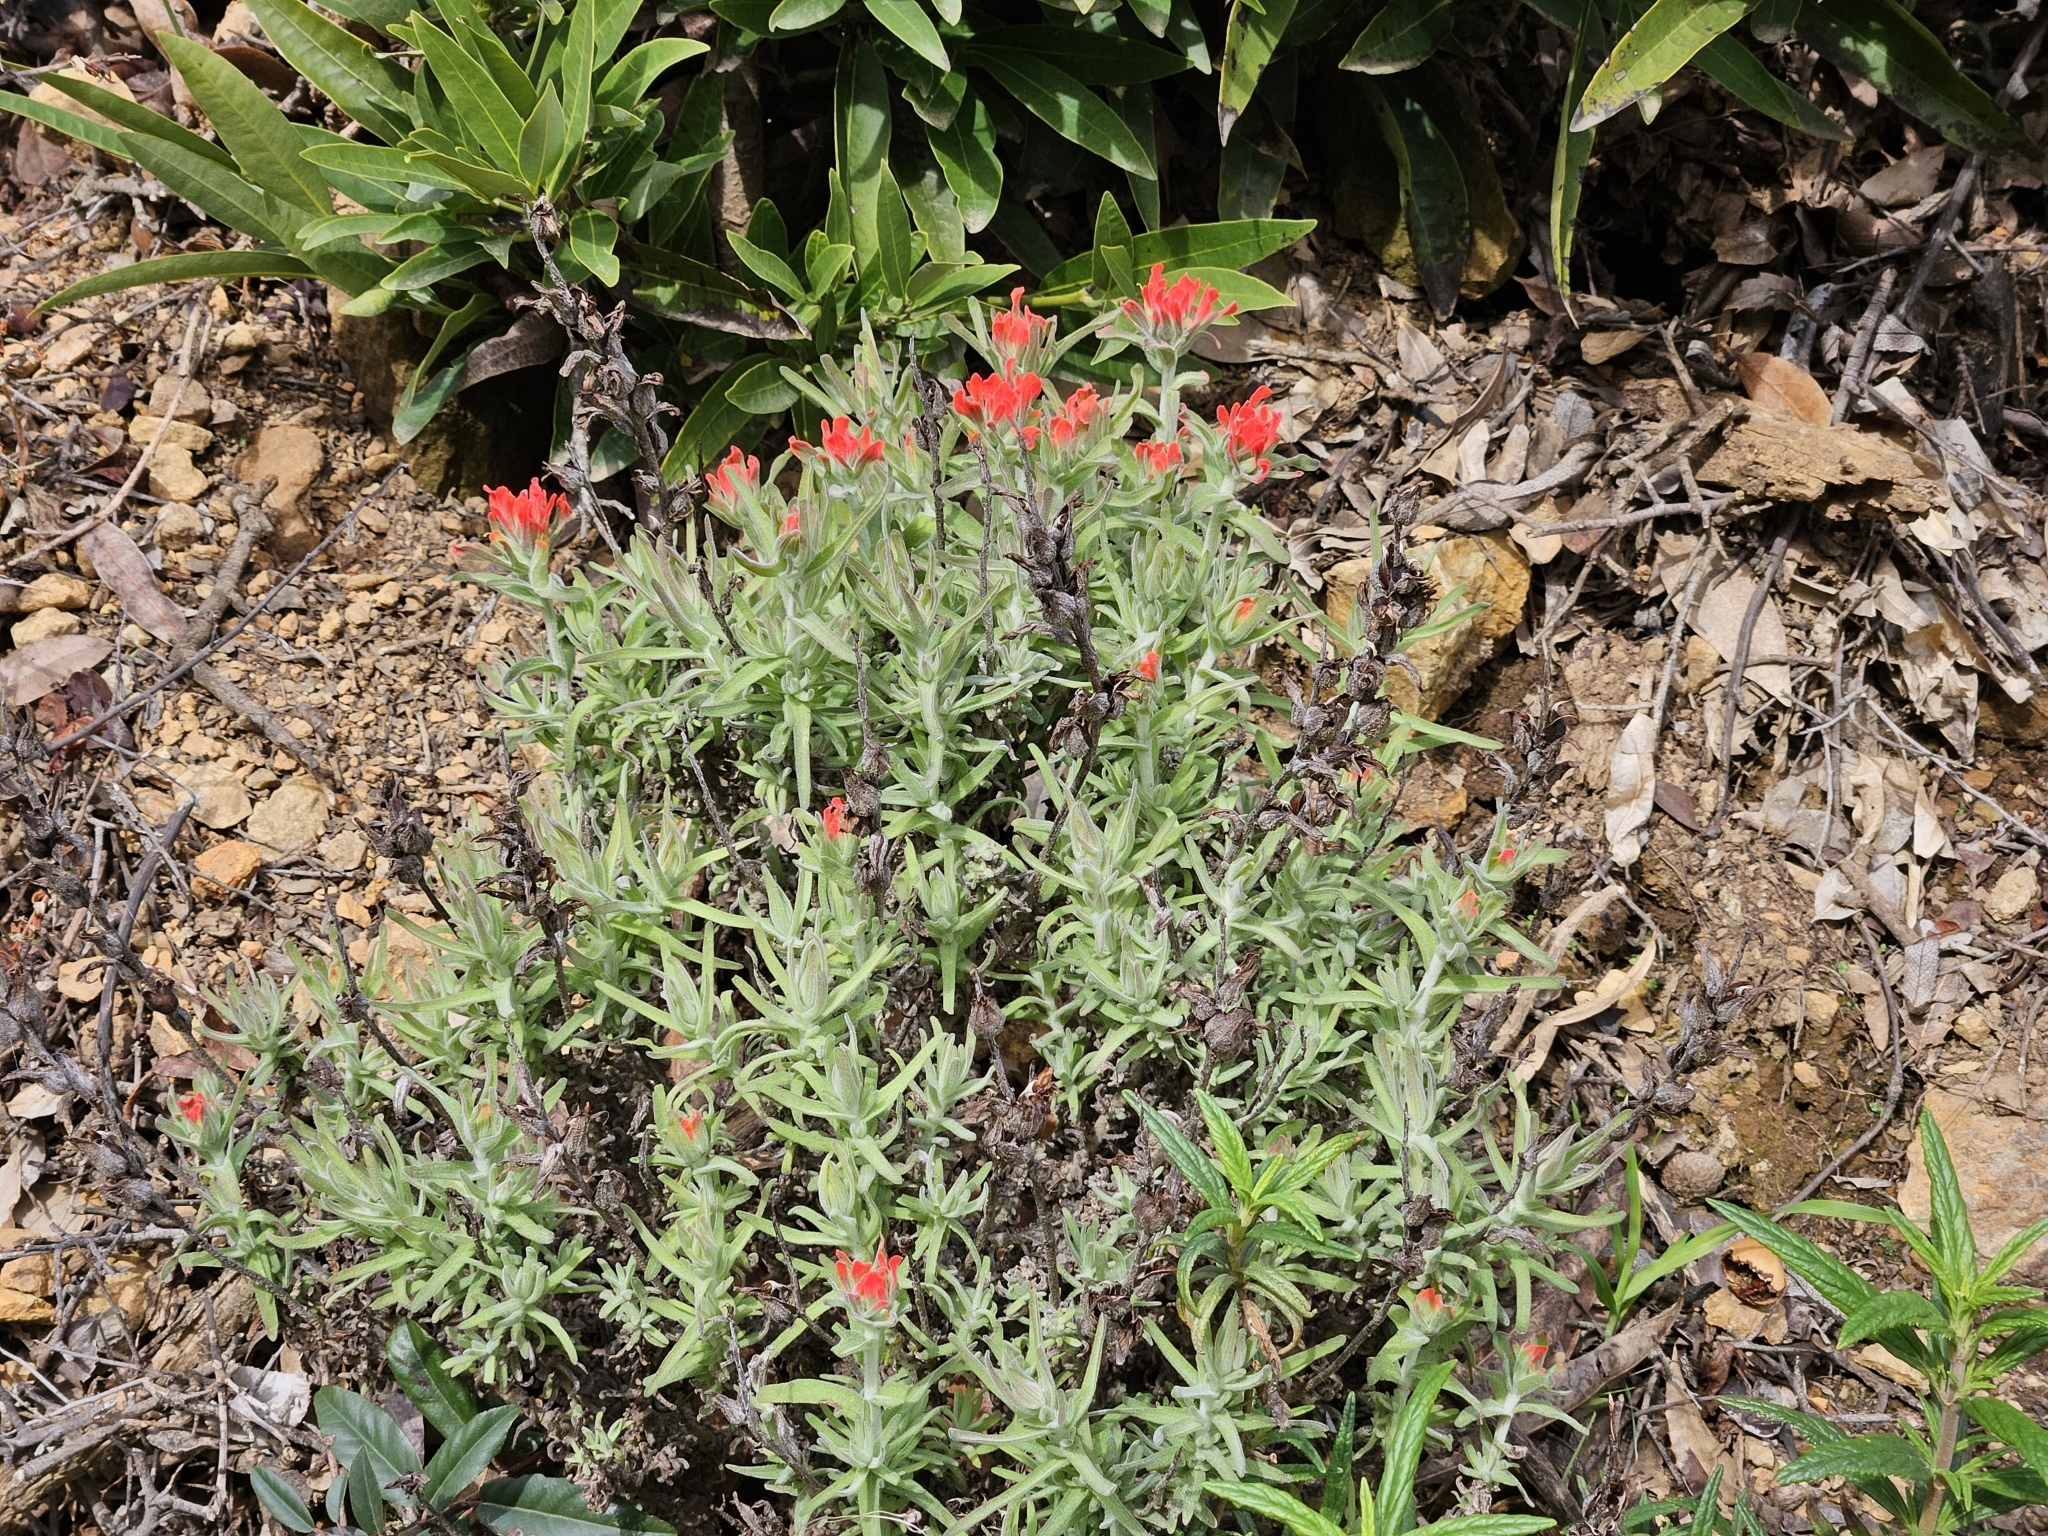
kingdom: Plantae
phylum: Tracheophyta
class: Magnoliopsida
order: Lamiales
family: Orobanchaceae
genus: Castilleja
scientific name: Castilleja foliolosa
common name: Woolly indian paintbrush
